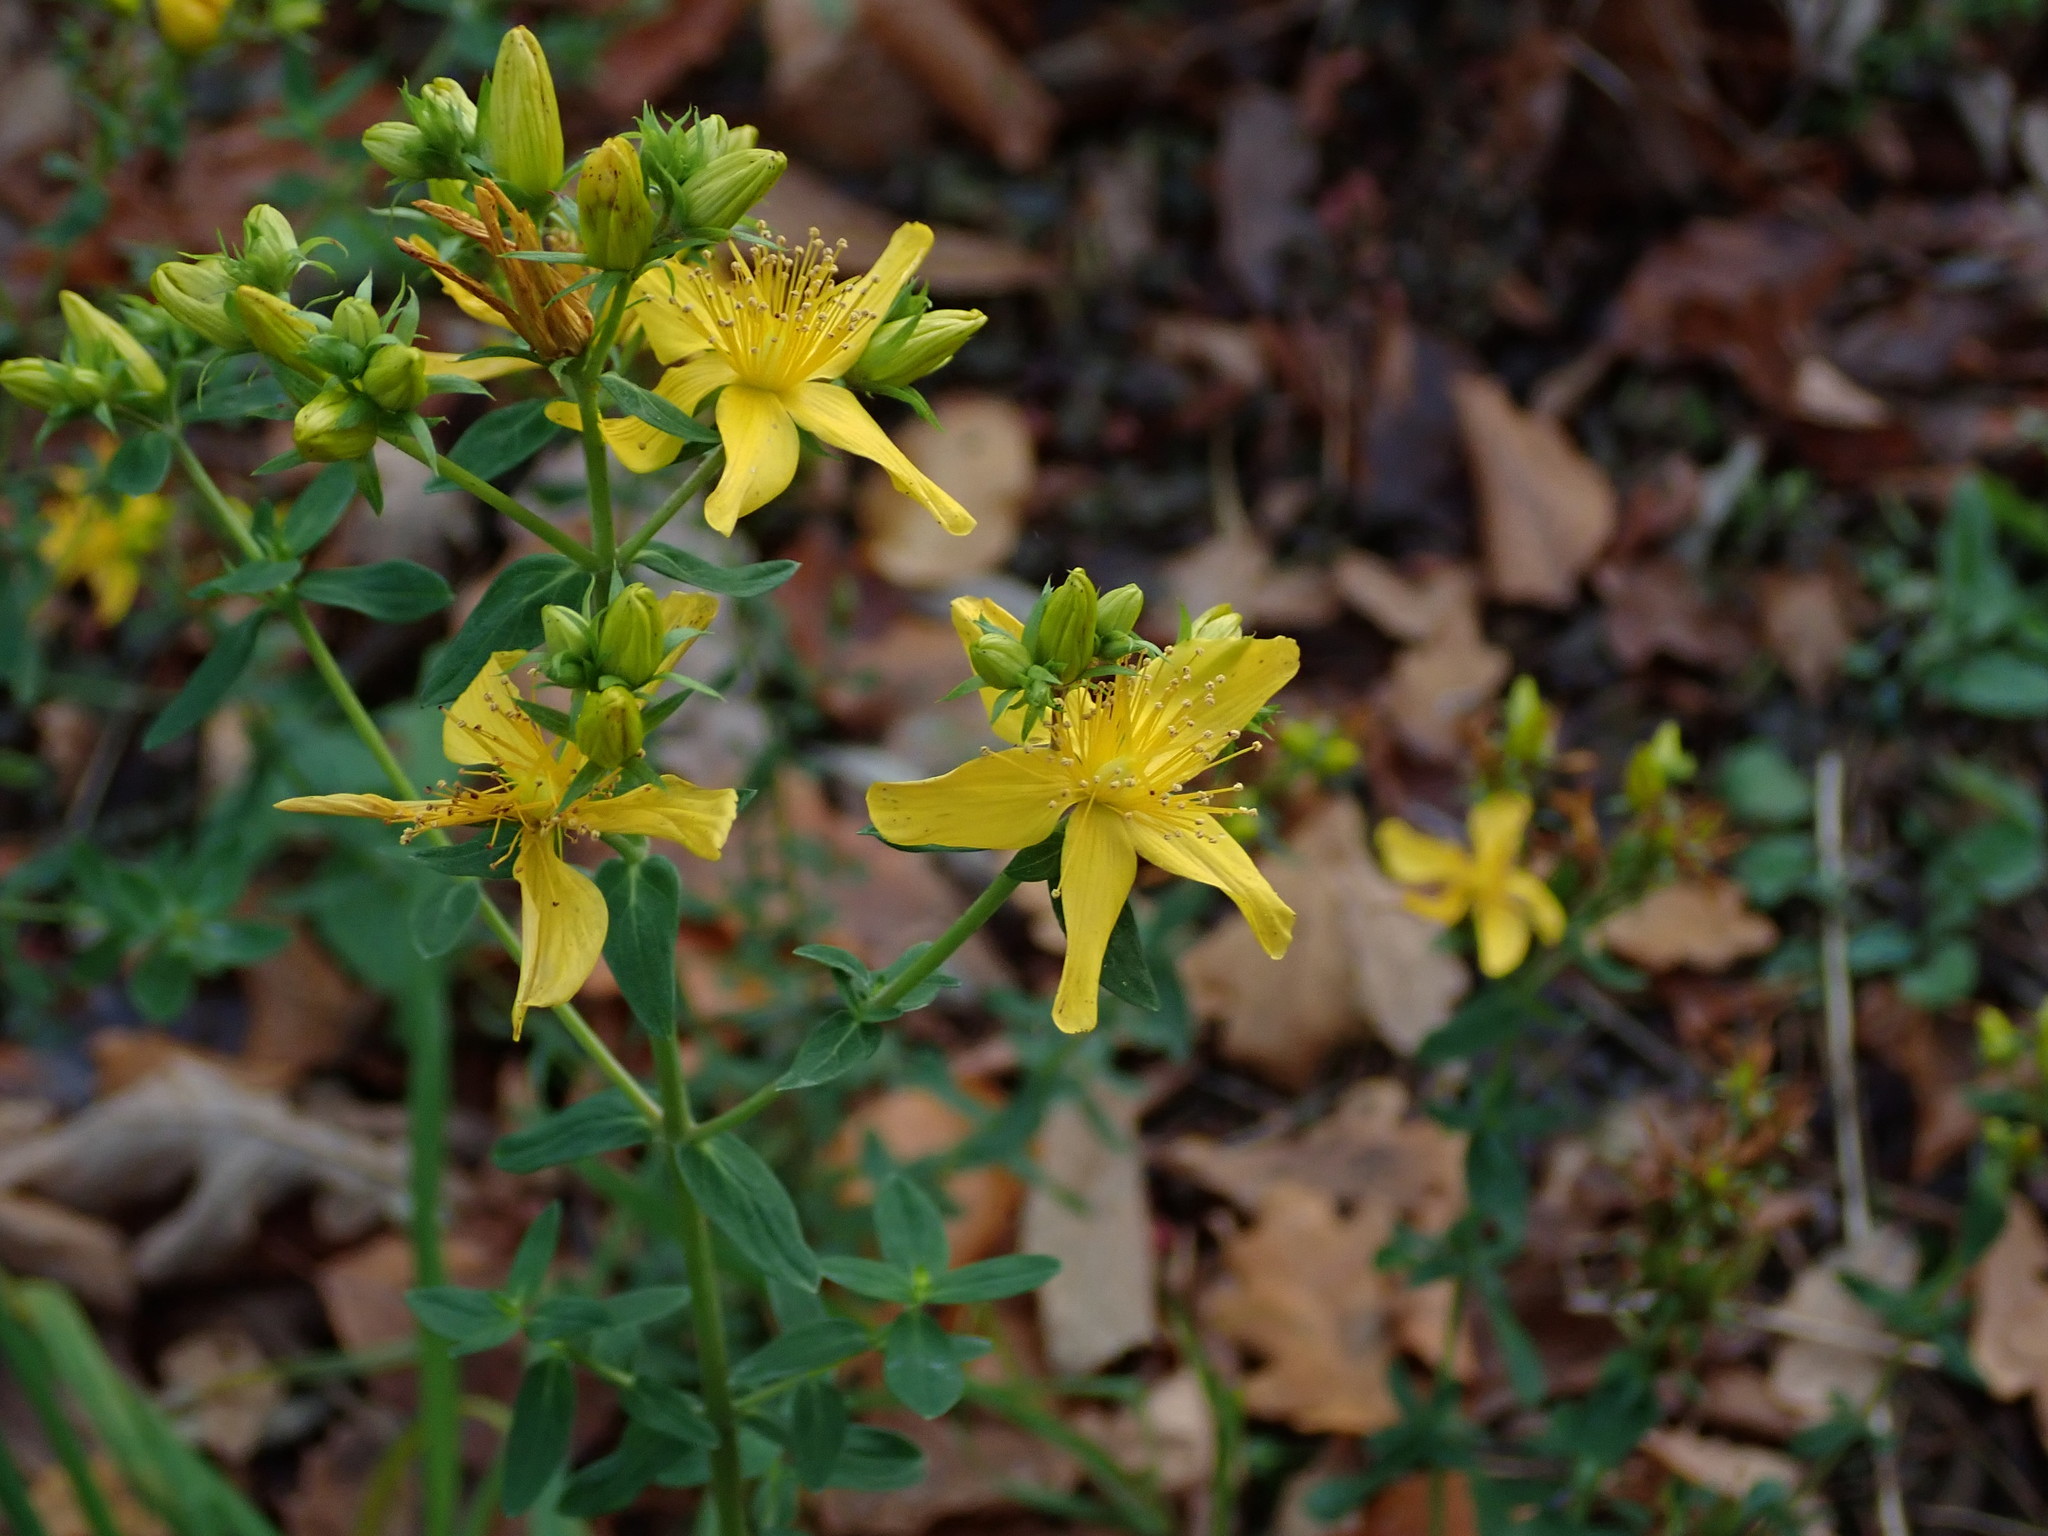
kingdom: Plantae
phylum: Tracheophyta
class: Magnoliopsida
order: Malpighiales
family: Hypericaceae
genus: Hypericum
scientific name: Hypericum perforatum
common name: Common st. johnswort
